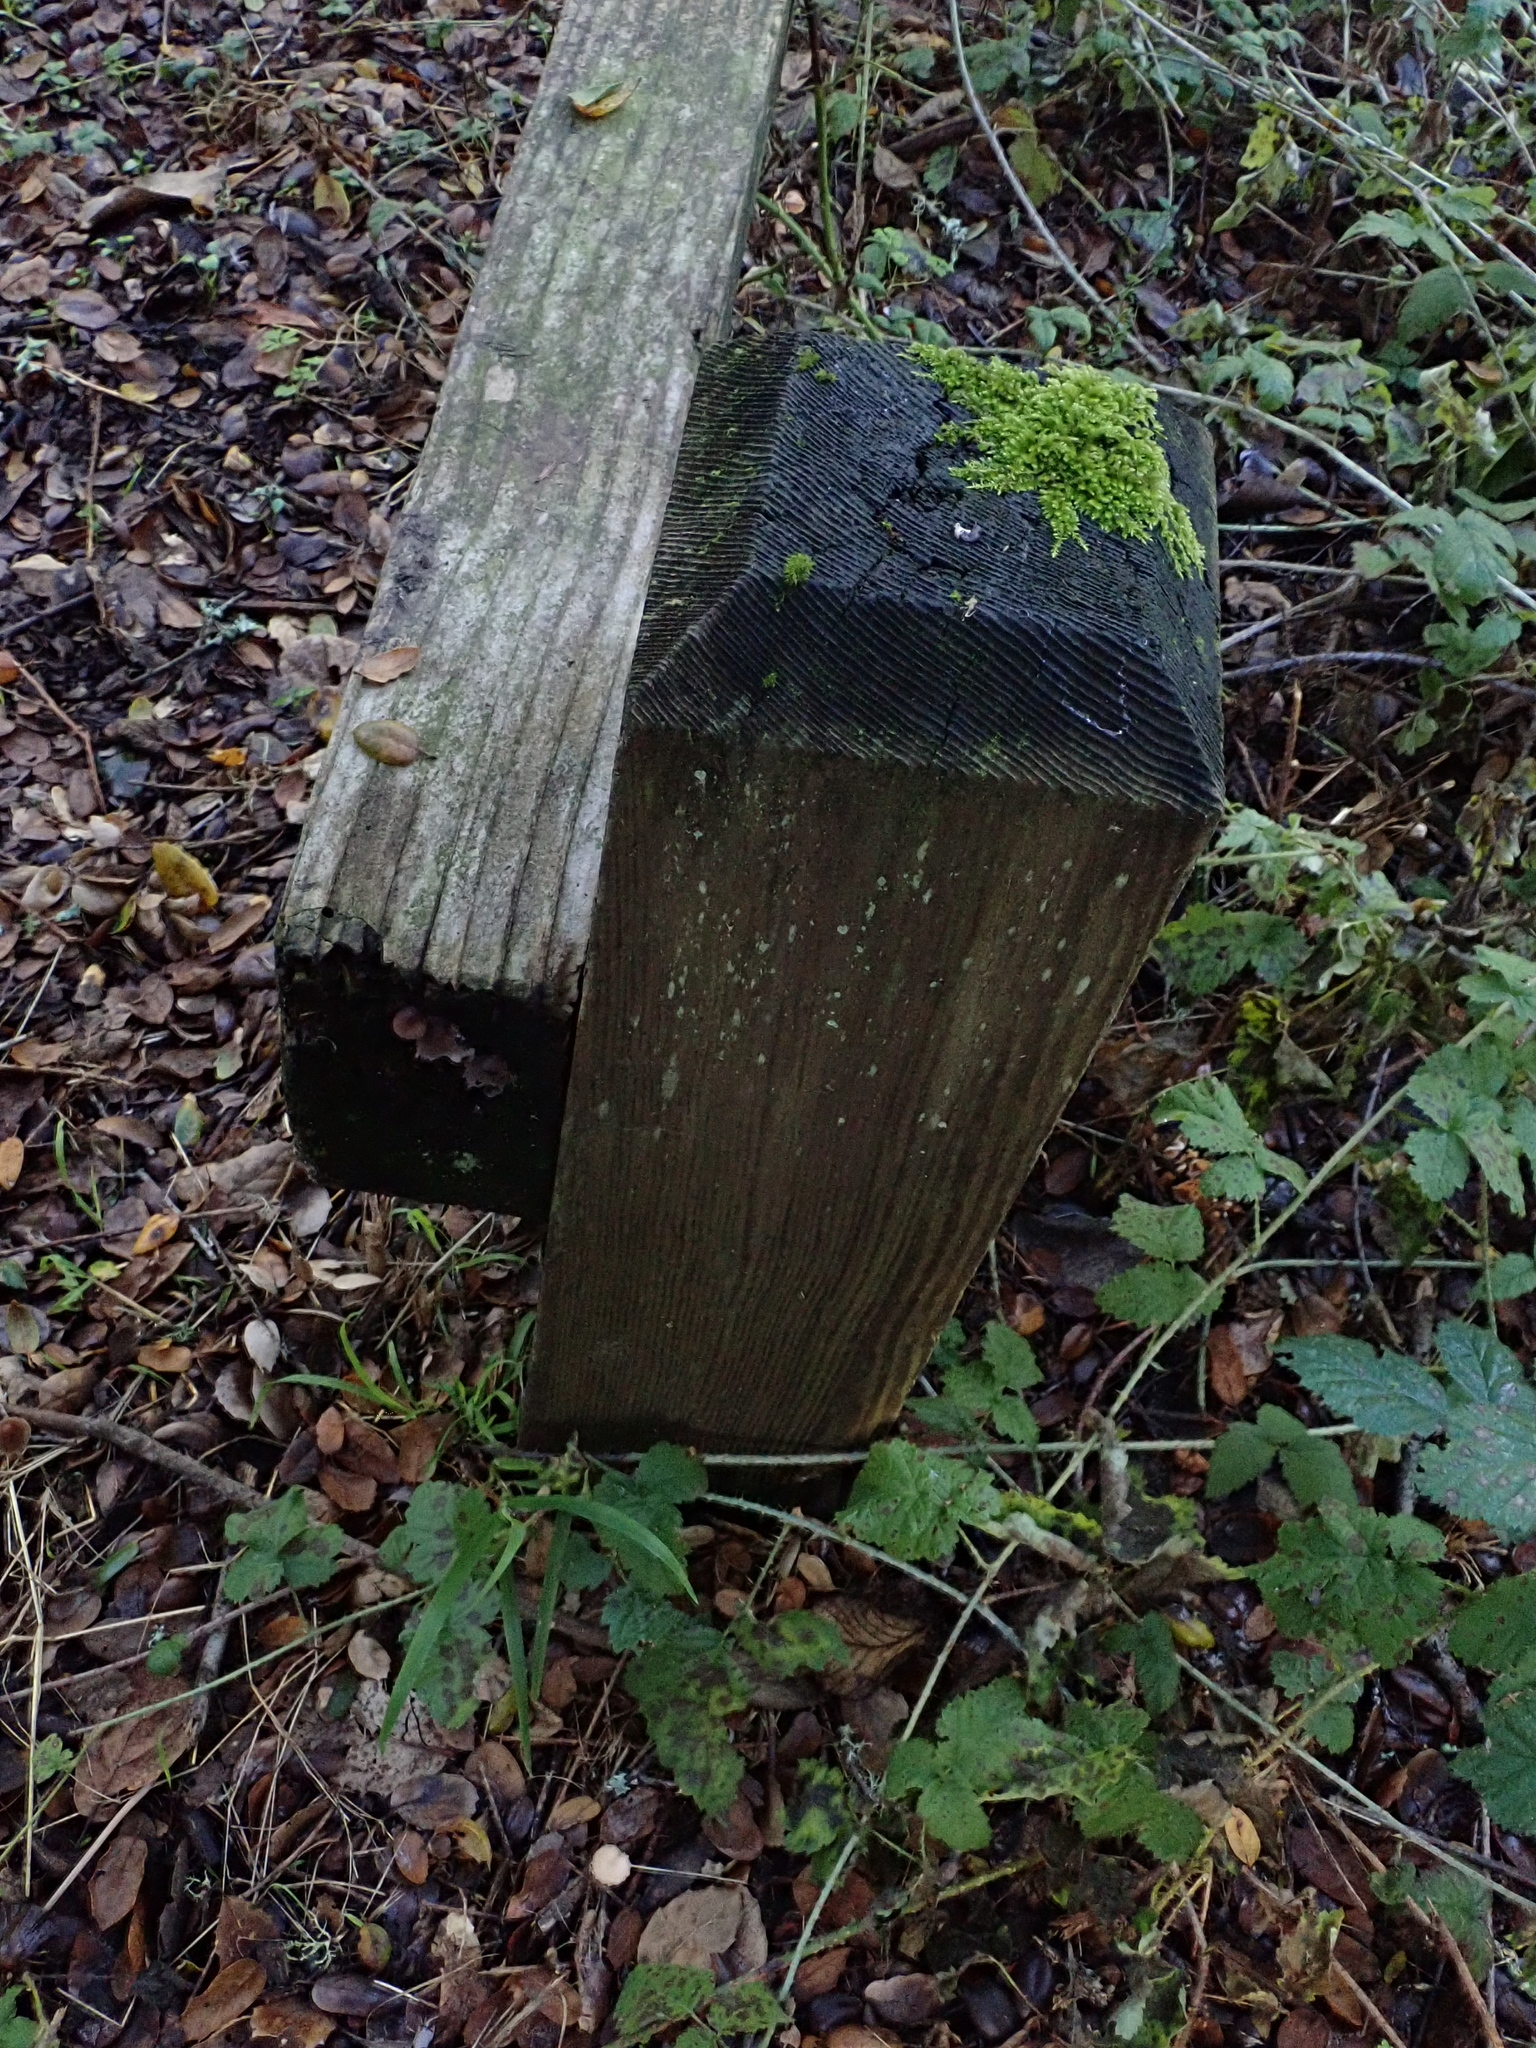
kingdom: Fungi
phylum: Basidiomycota
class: Agaricomycetes
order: Agaricales
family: Mycenaceae
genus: Mycena
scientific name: Mycena purpureofusca
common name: Purple edge bonnet
